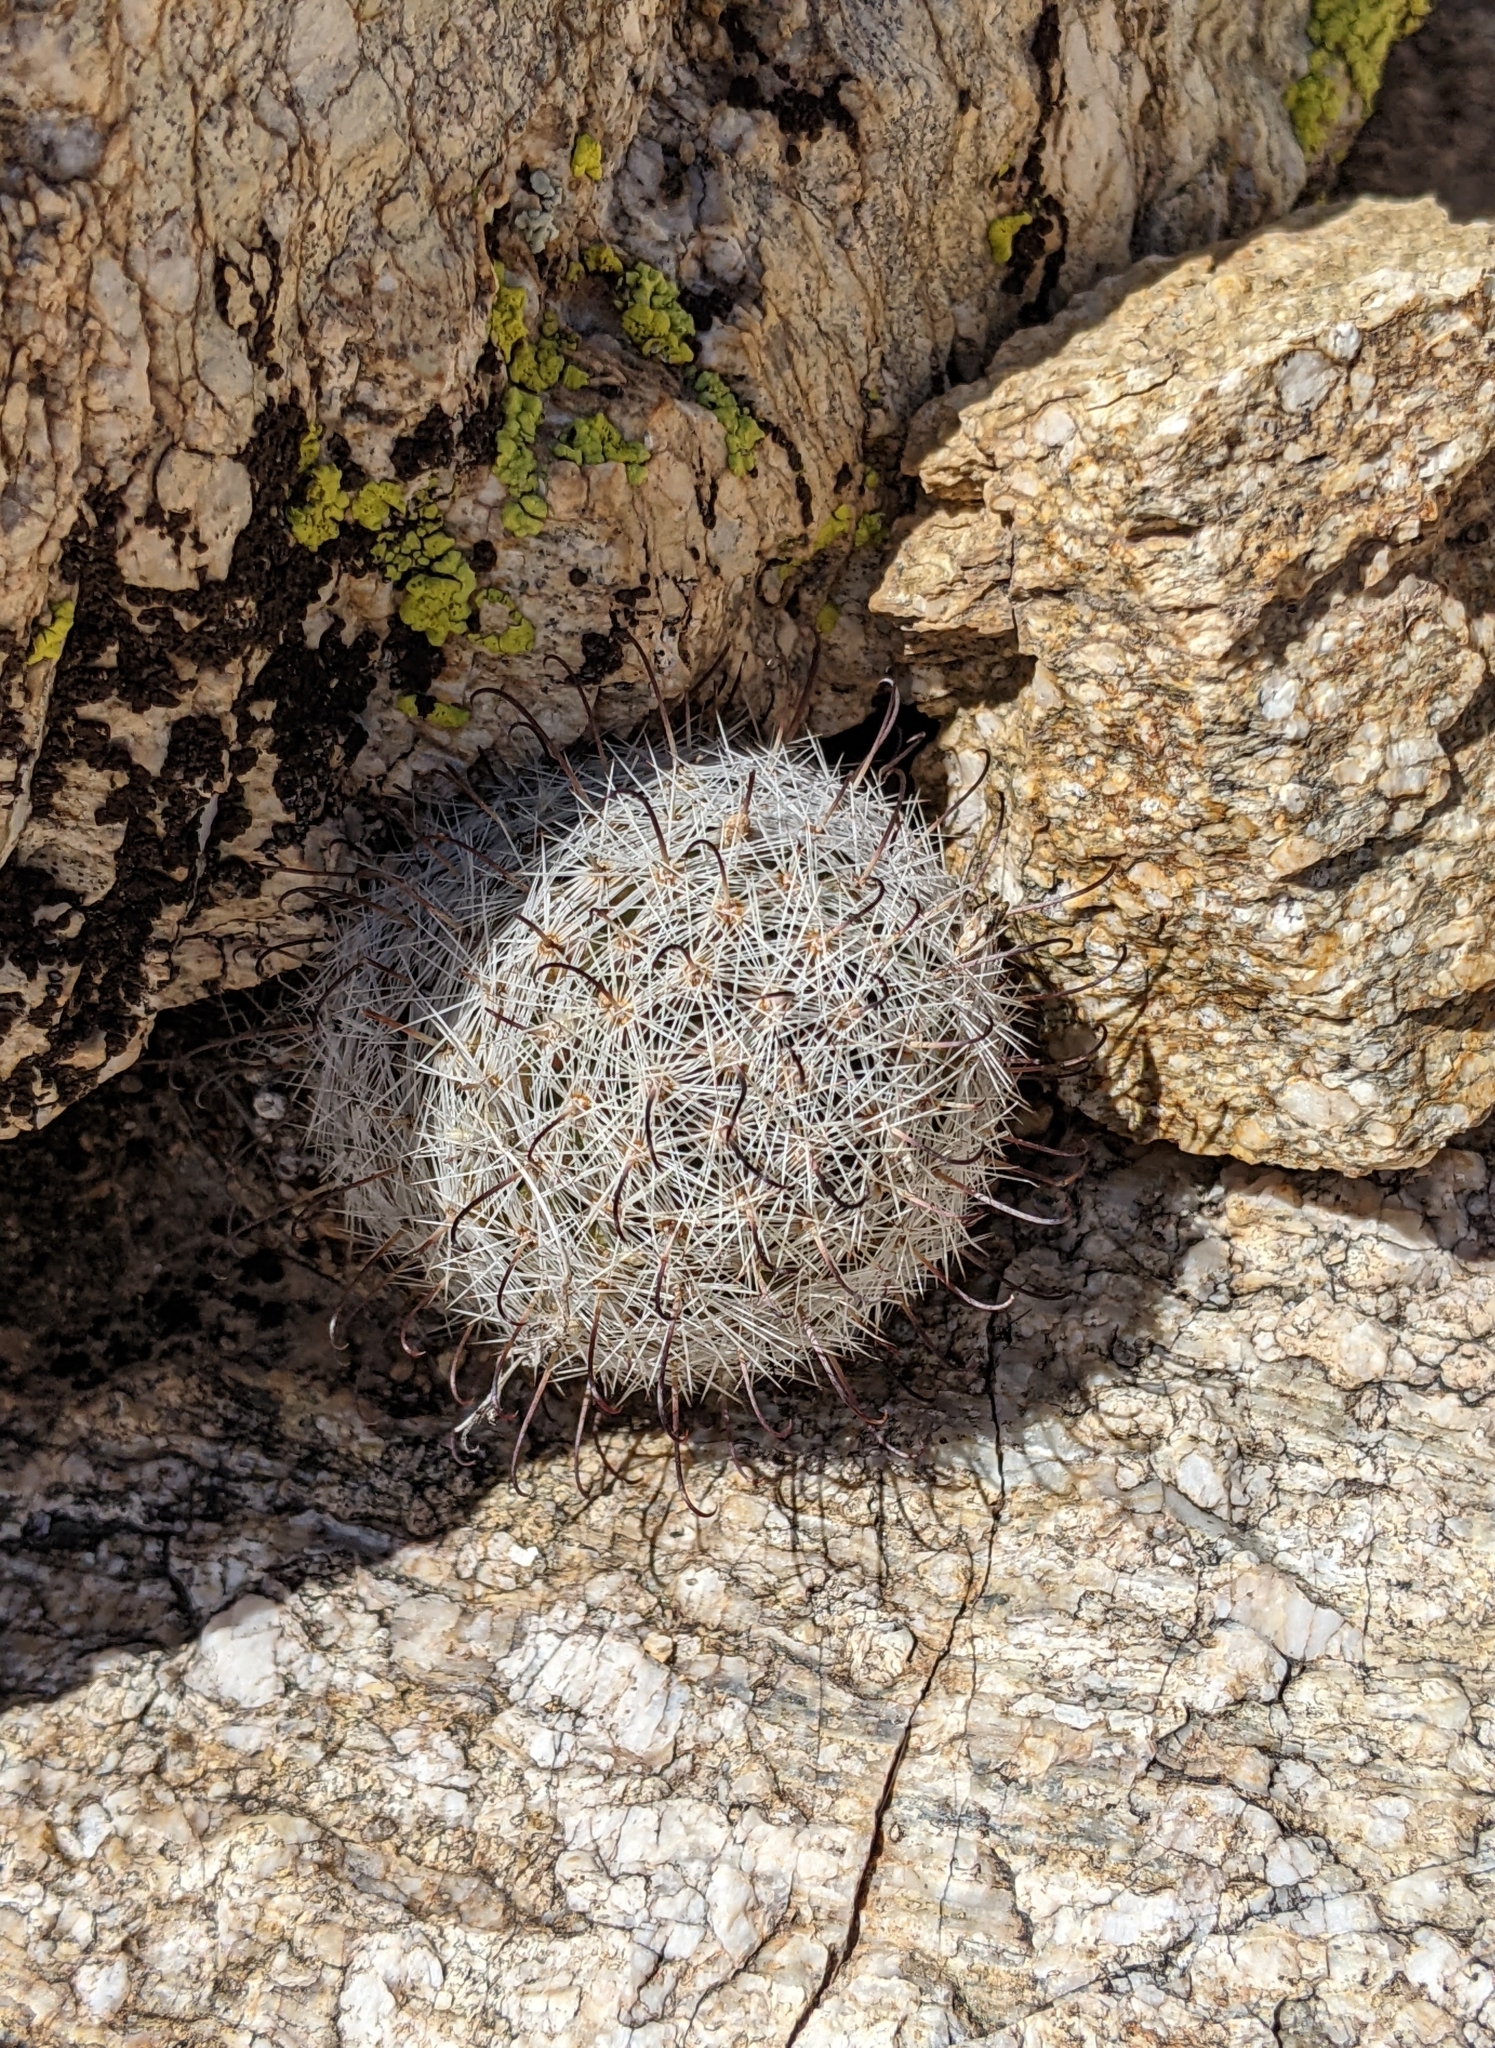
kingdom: Plantae
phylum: Tracheophyta
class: Magnoliopsida
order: Caryophyllales
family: Cactaceae
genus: Cochemiea
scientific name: Cochemiea grahamii
